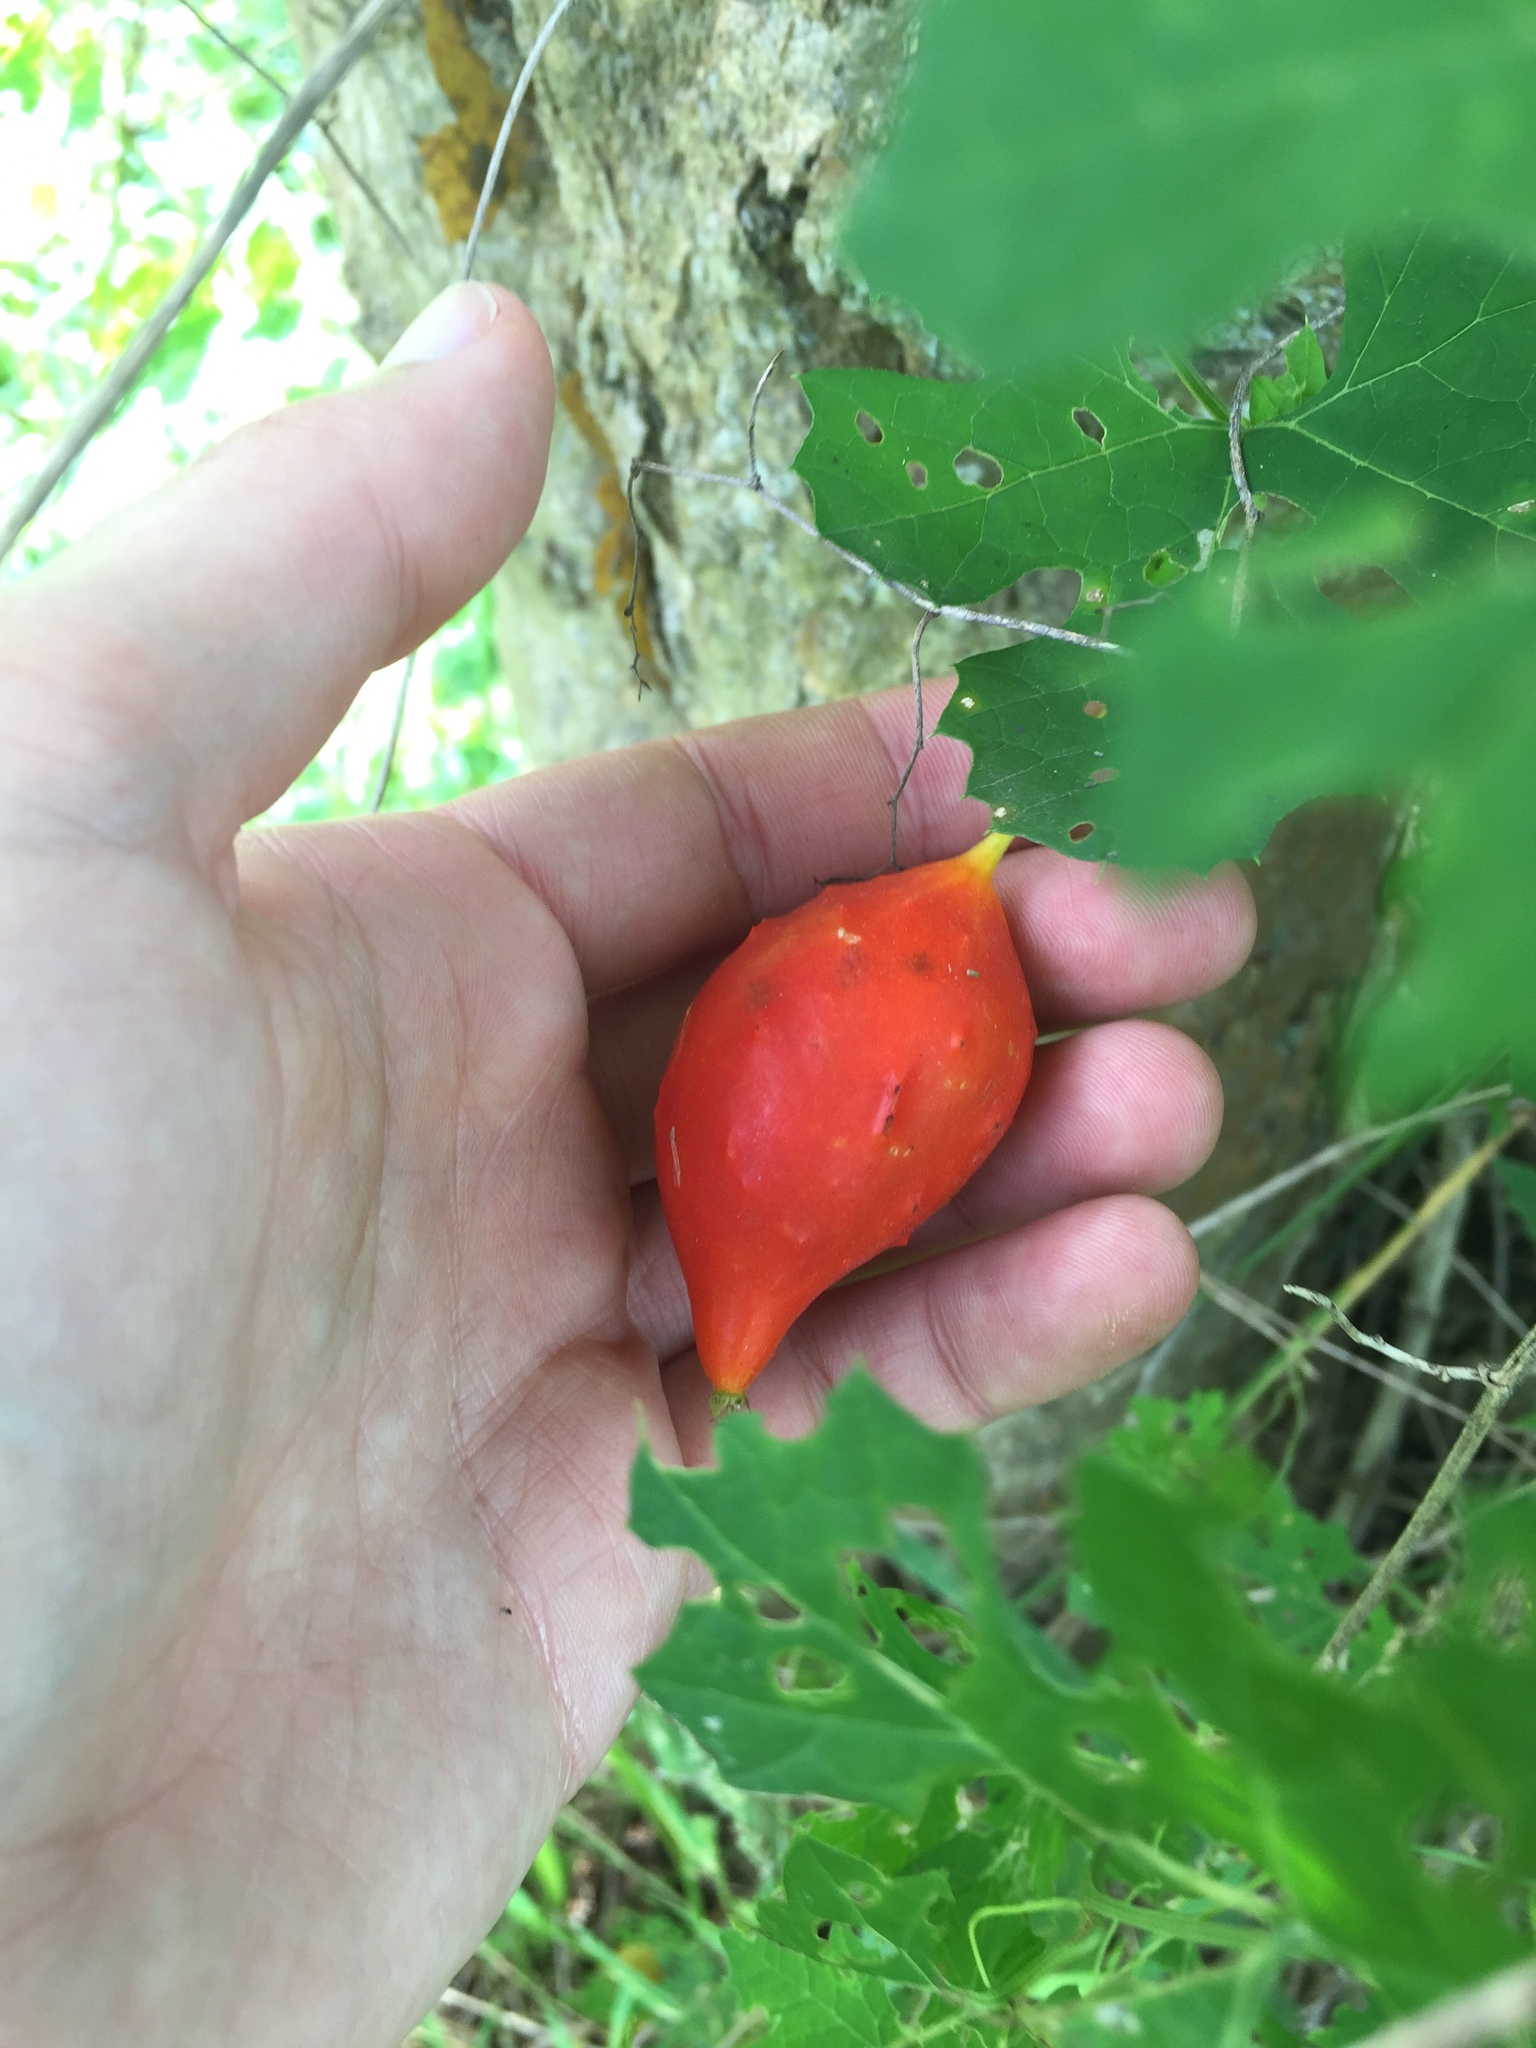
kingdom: Plantae
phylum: Tracheophyta
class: Magnoliopsida
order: Cucurbitales
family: Cucurbitaceae
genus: Momordica
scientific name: Momordica balsamina
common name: Southern balsampear
